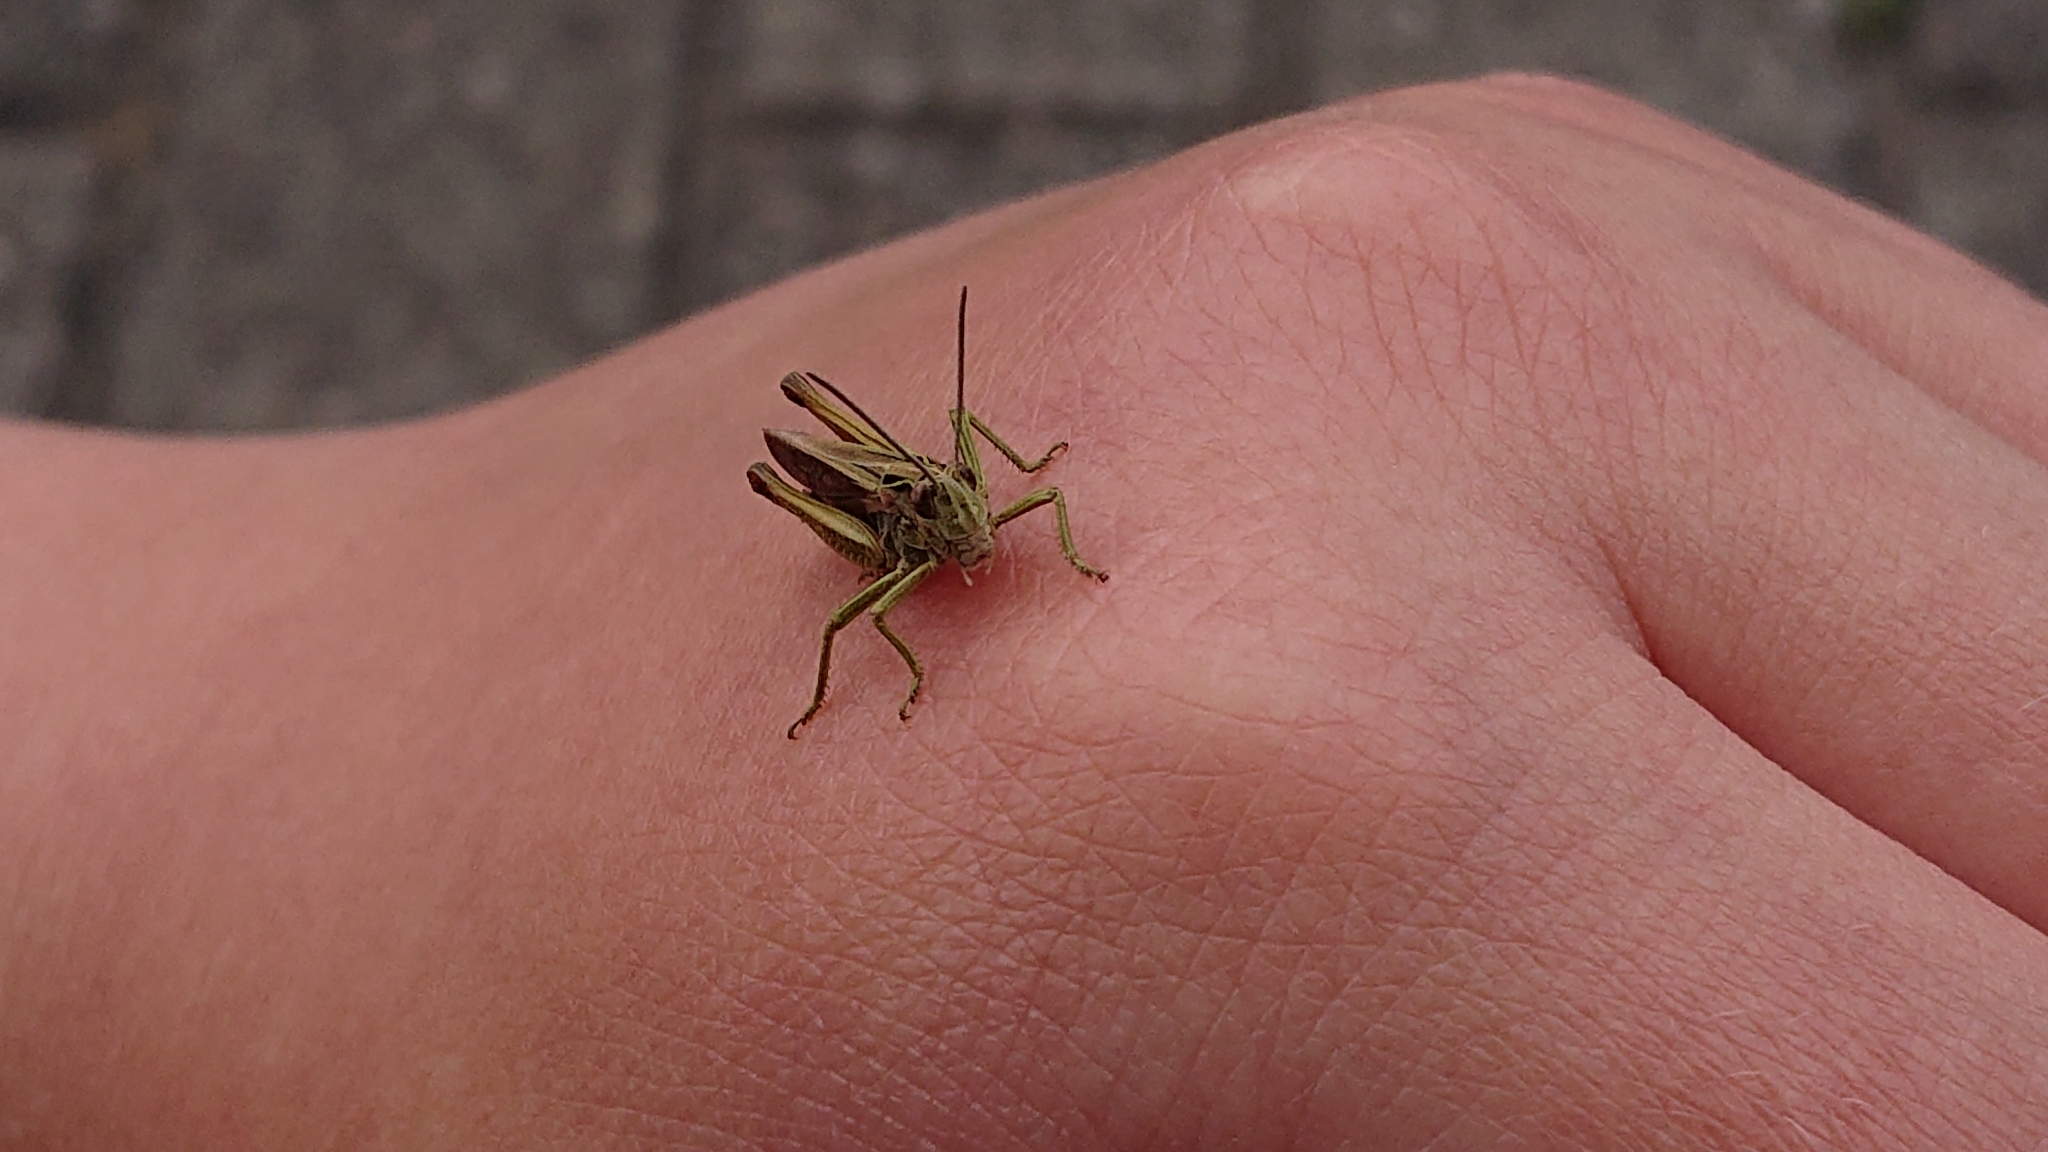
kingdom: Animalia
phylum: Arthropoda
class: Insecta
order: Orthoptera
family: Acrididae
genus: Omocestus
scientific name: Omocestus viridulus
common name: Common green grasshopper
